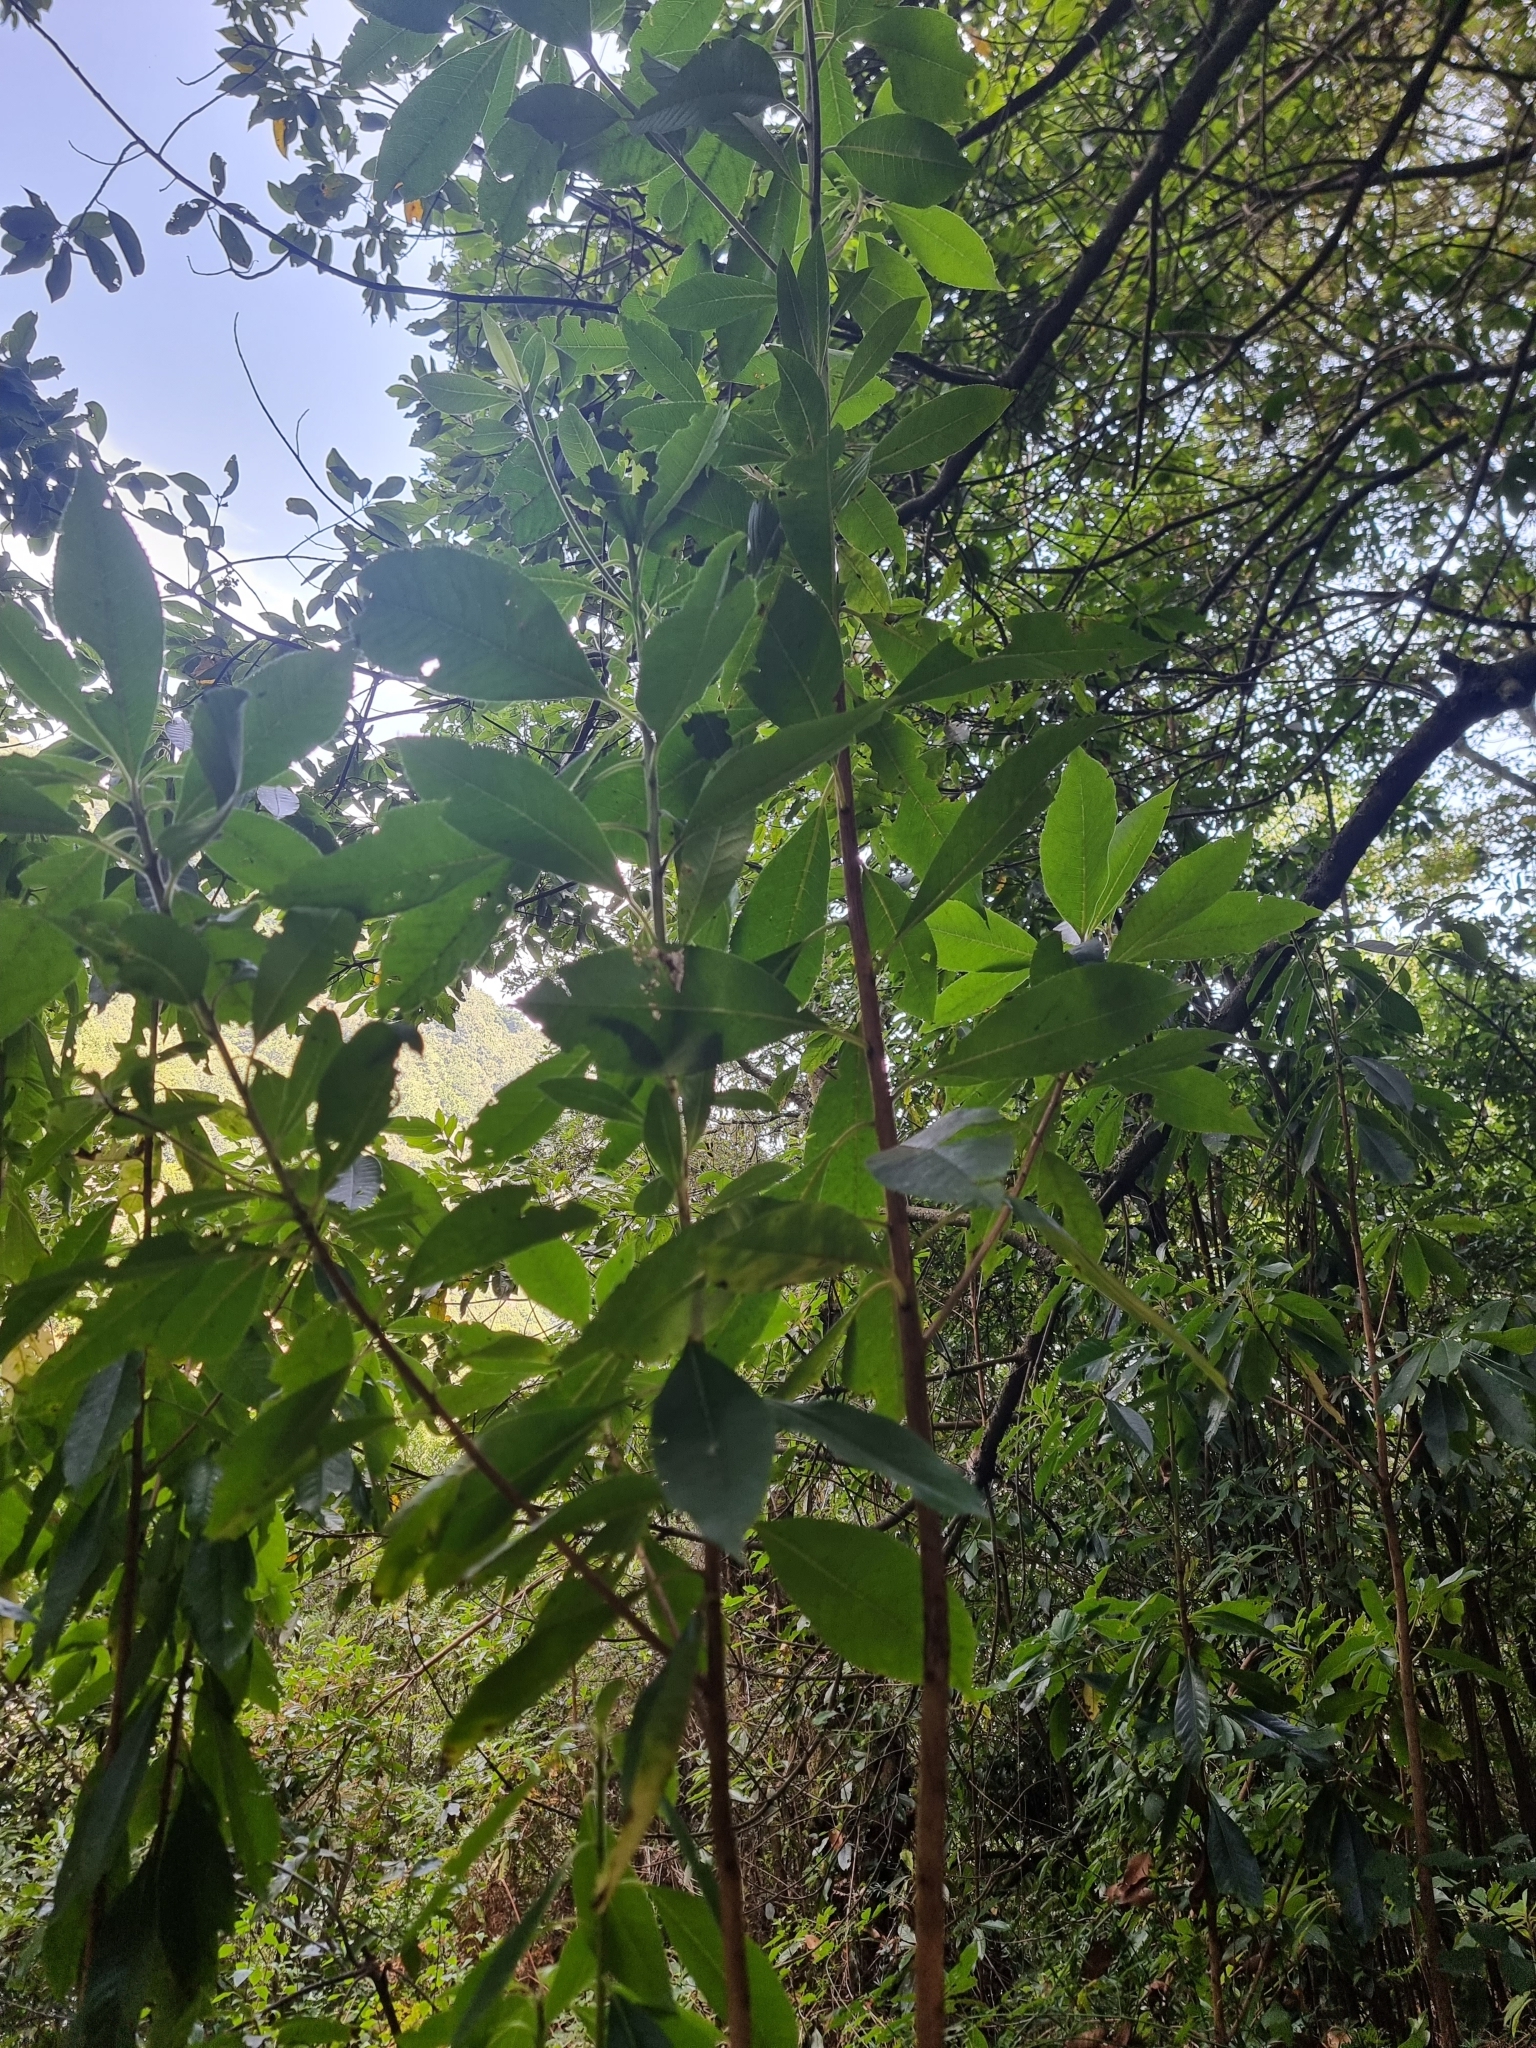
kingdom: Plantae
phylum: Tracheophyta
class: Magnoliopsida
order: Ericales
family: Clethraceae
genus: Clethra
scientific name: Clethra arborea
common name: Lily-of-the-valley-tree
